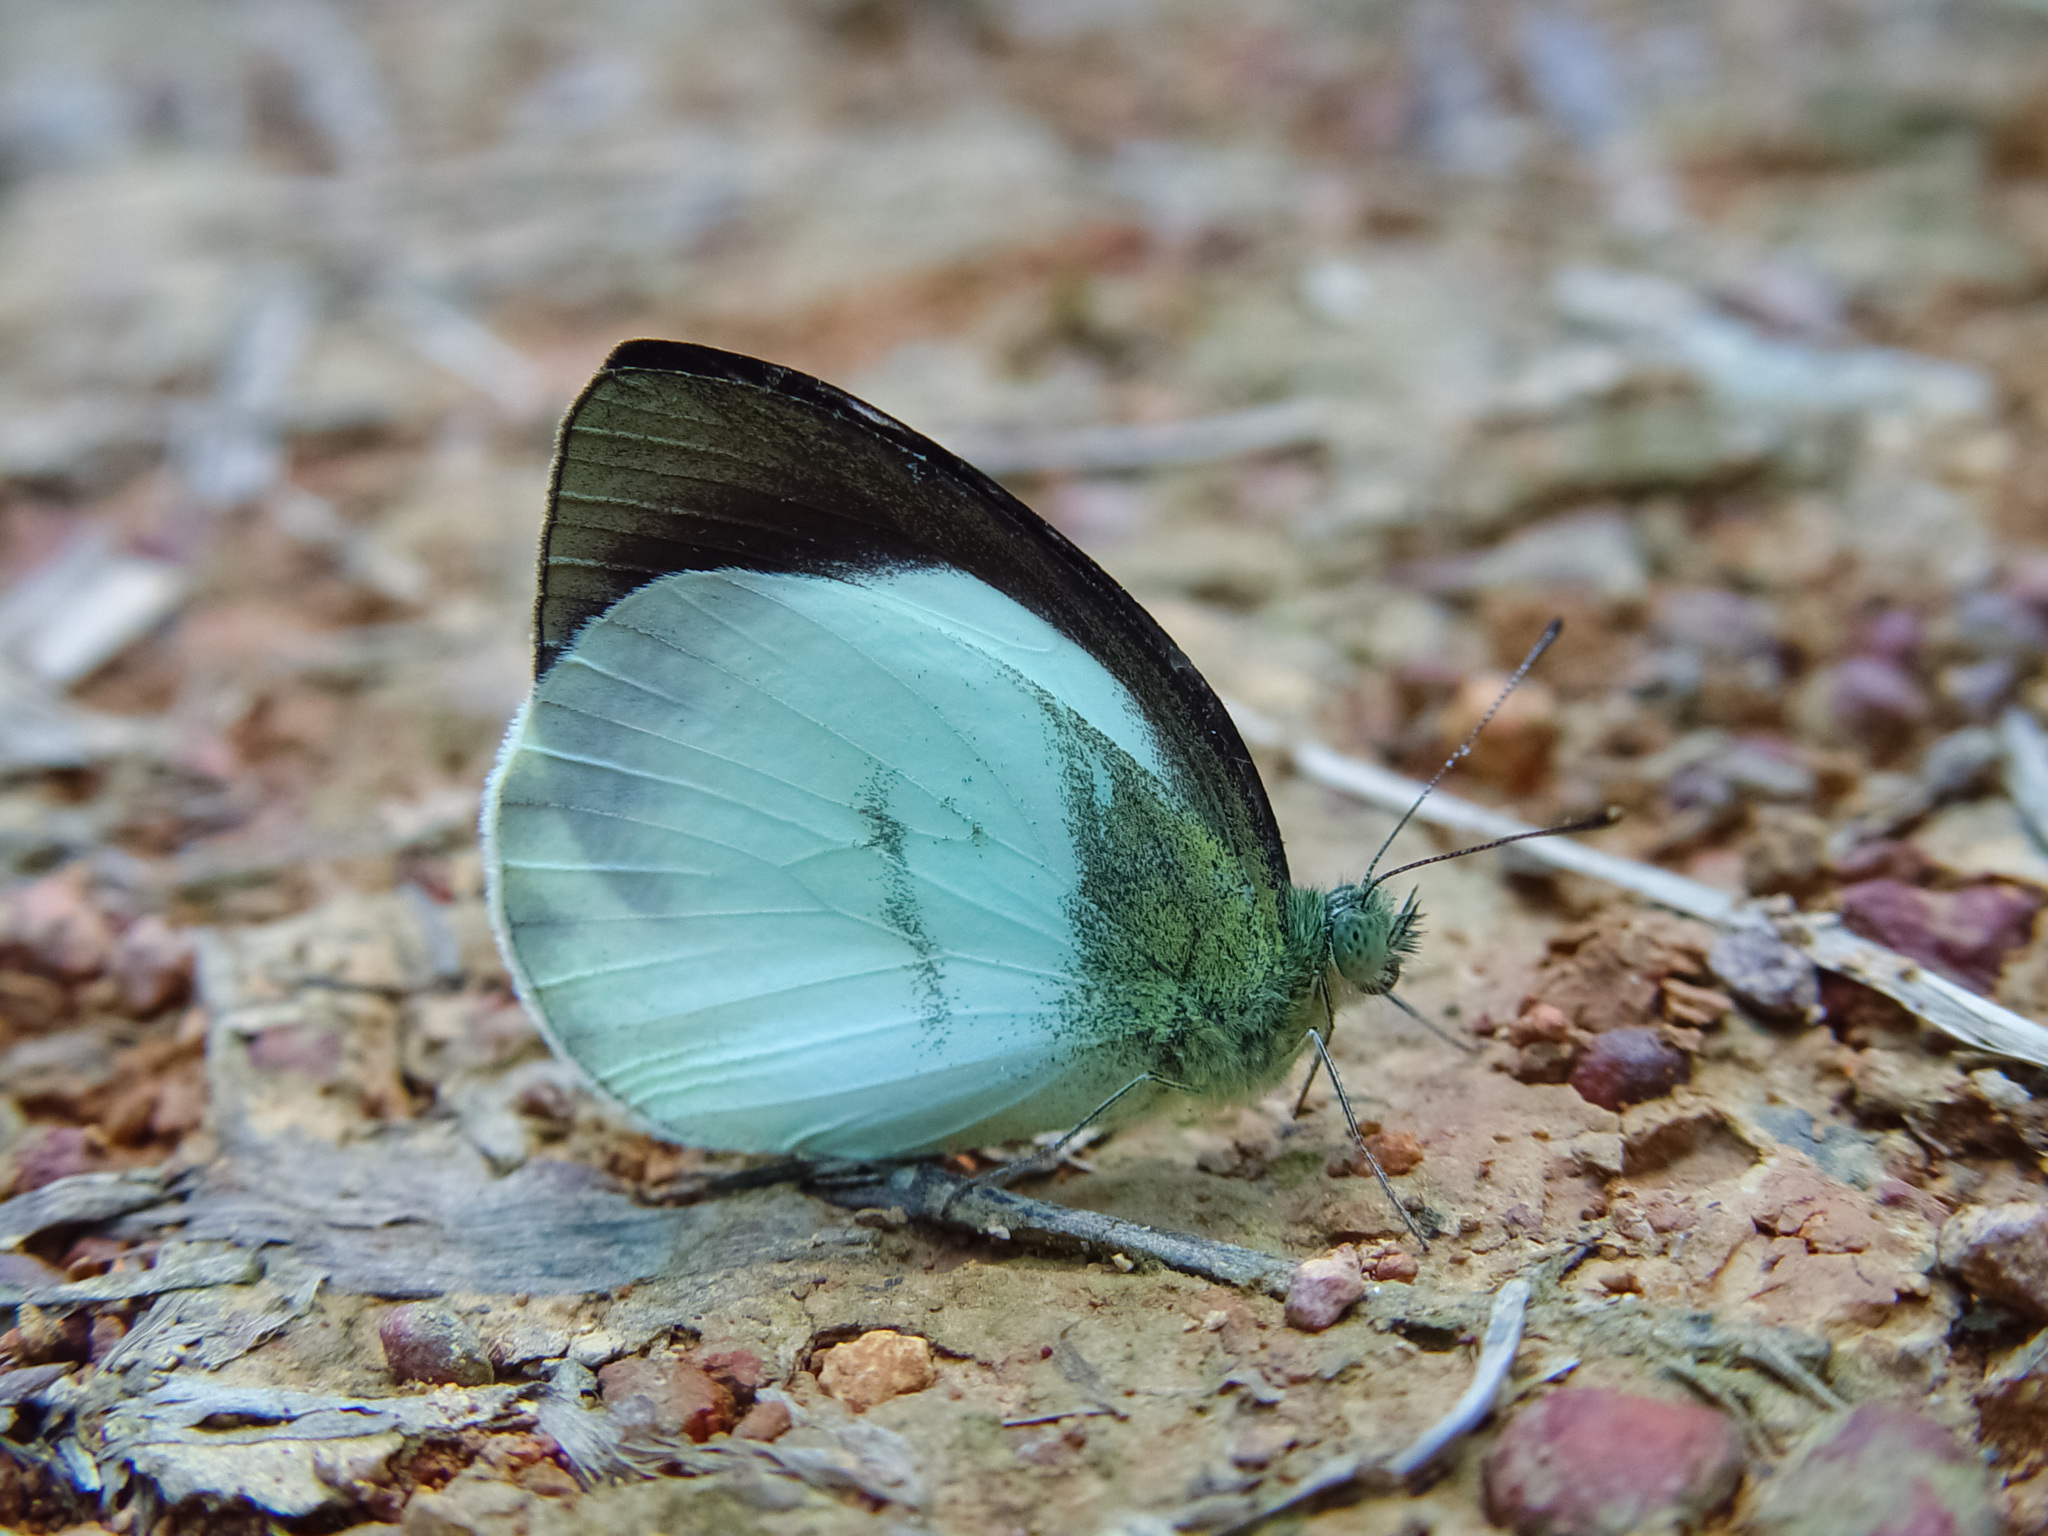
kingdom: Animalia
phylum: Arthropoda
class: Insecta
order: Lepidoptera
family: Pieridae
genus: Phrissura
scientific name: Phrissura
